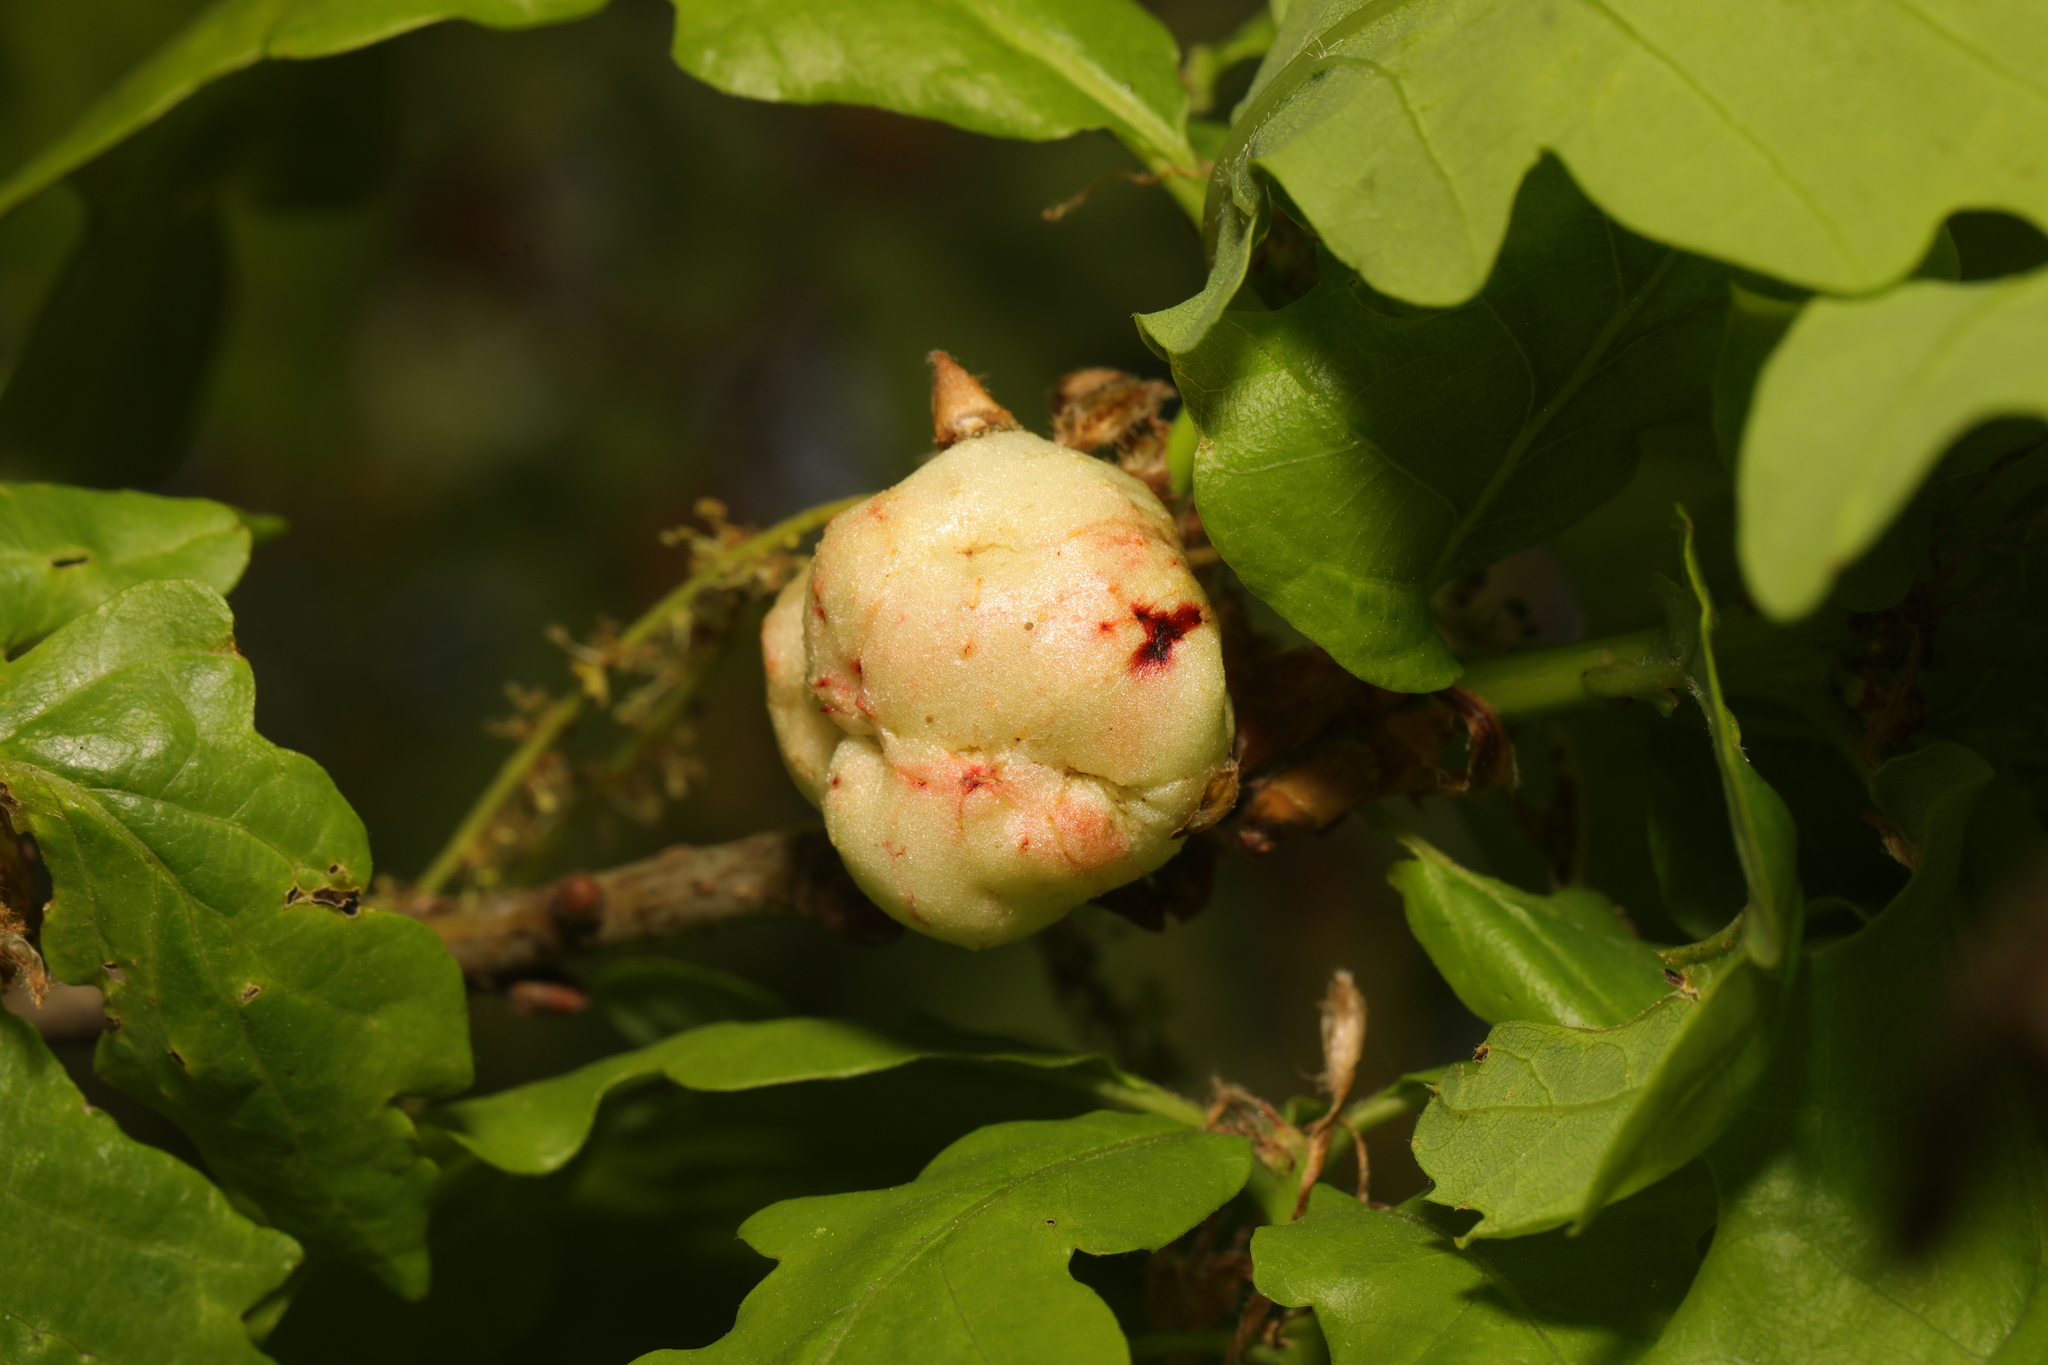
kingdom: Animalia
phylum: Arthropoda
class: Insecta
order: Hymenoptera
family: Cynipidae
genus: Biorhiza
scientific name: Biorhiza pallida
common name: Oak apple
